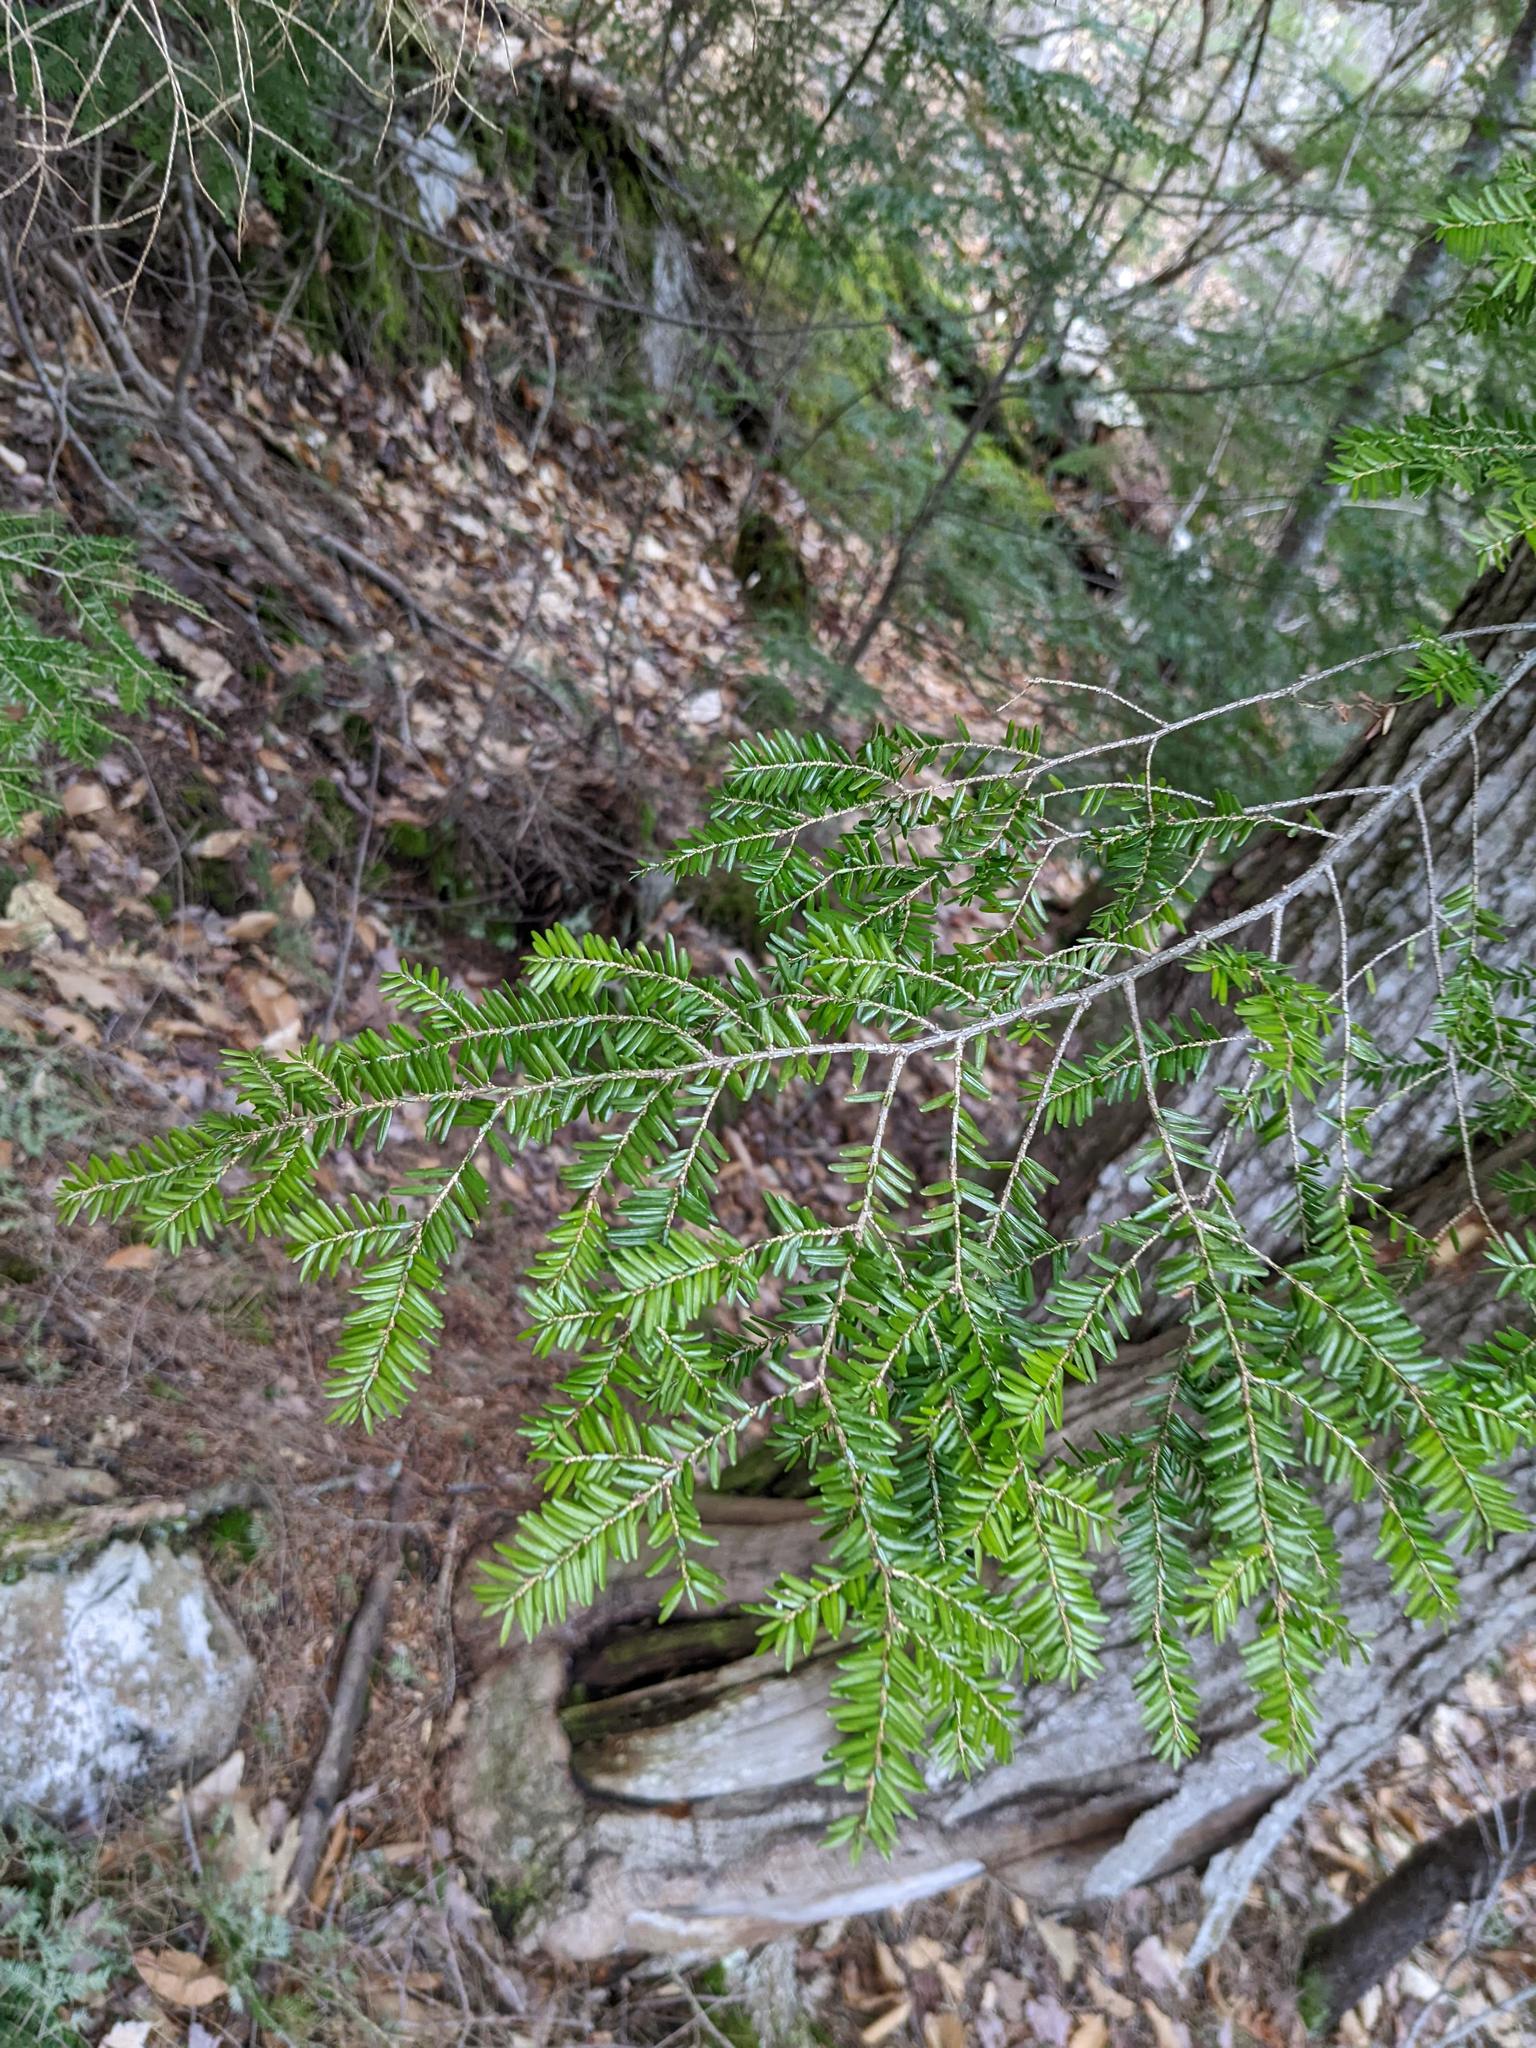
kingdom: Plantae
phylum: Tracheophyta
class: Pinopsida
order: Pinales
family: Pinaceae
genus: Tsuga
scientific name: Tsuga canadensis
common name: Eastern hemlock
